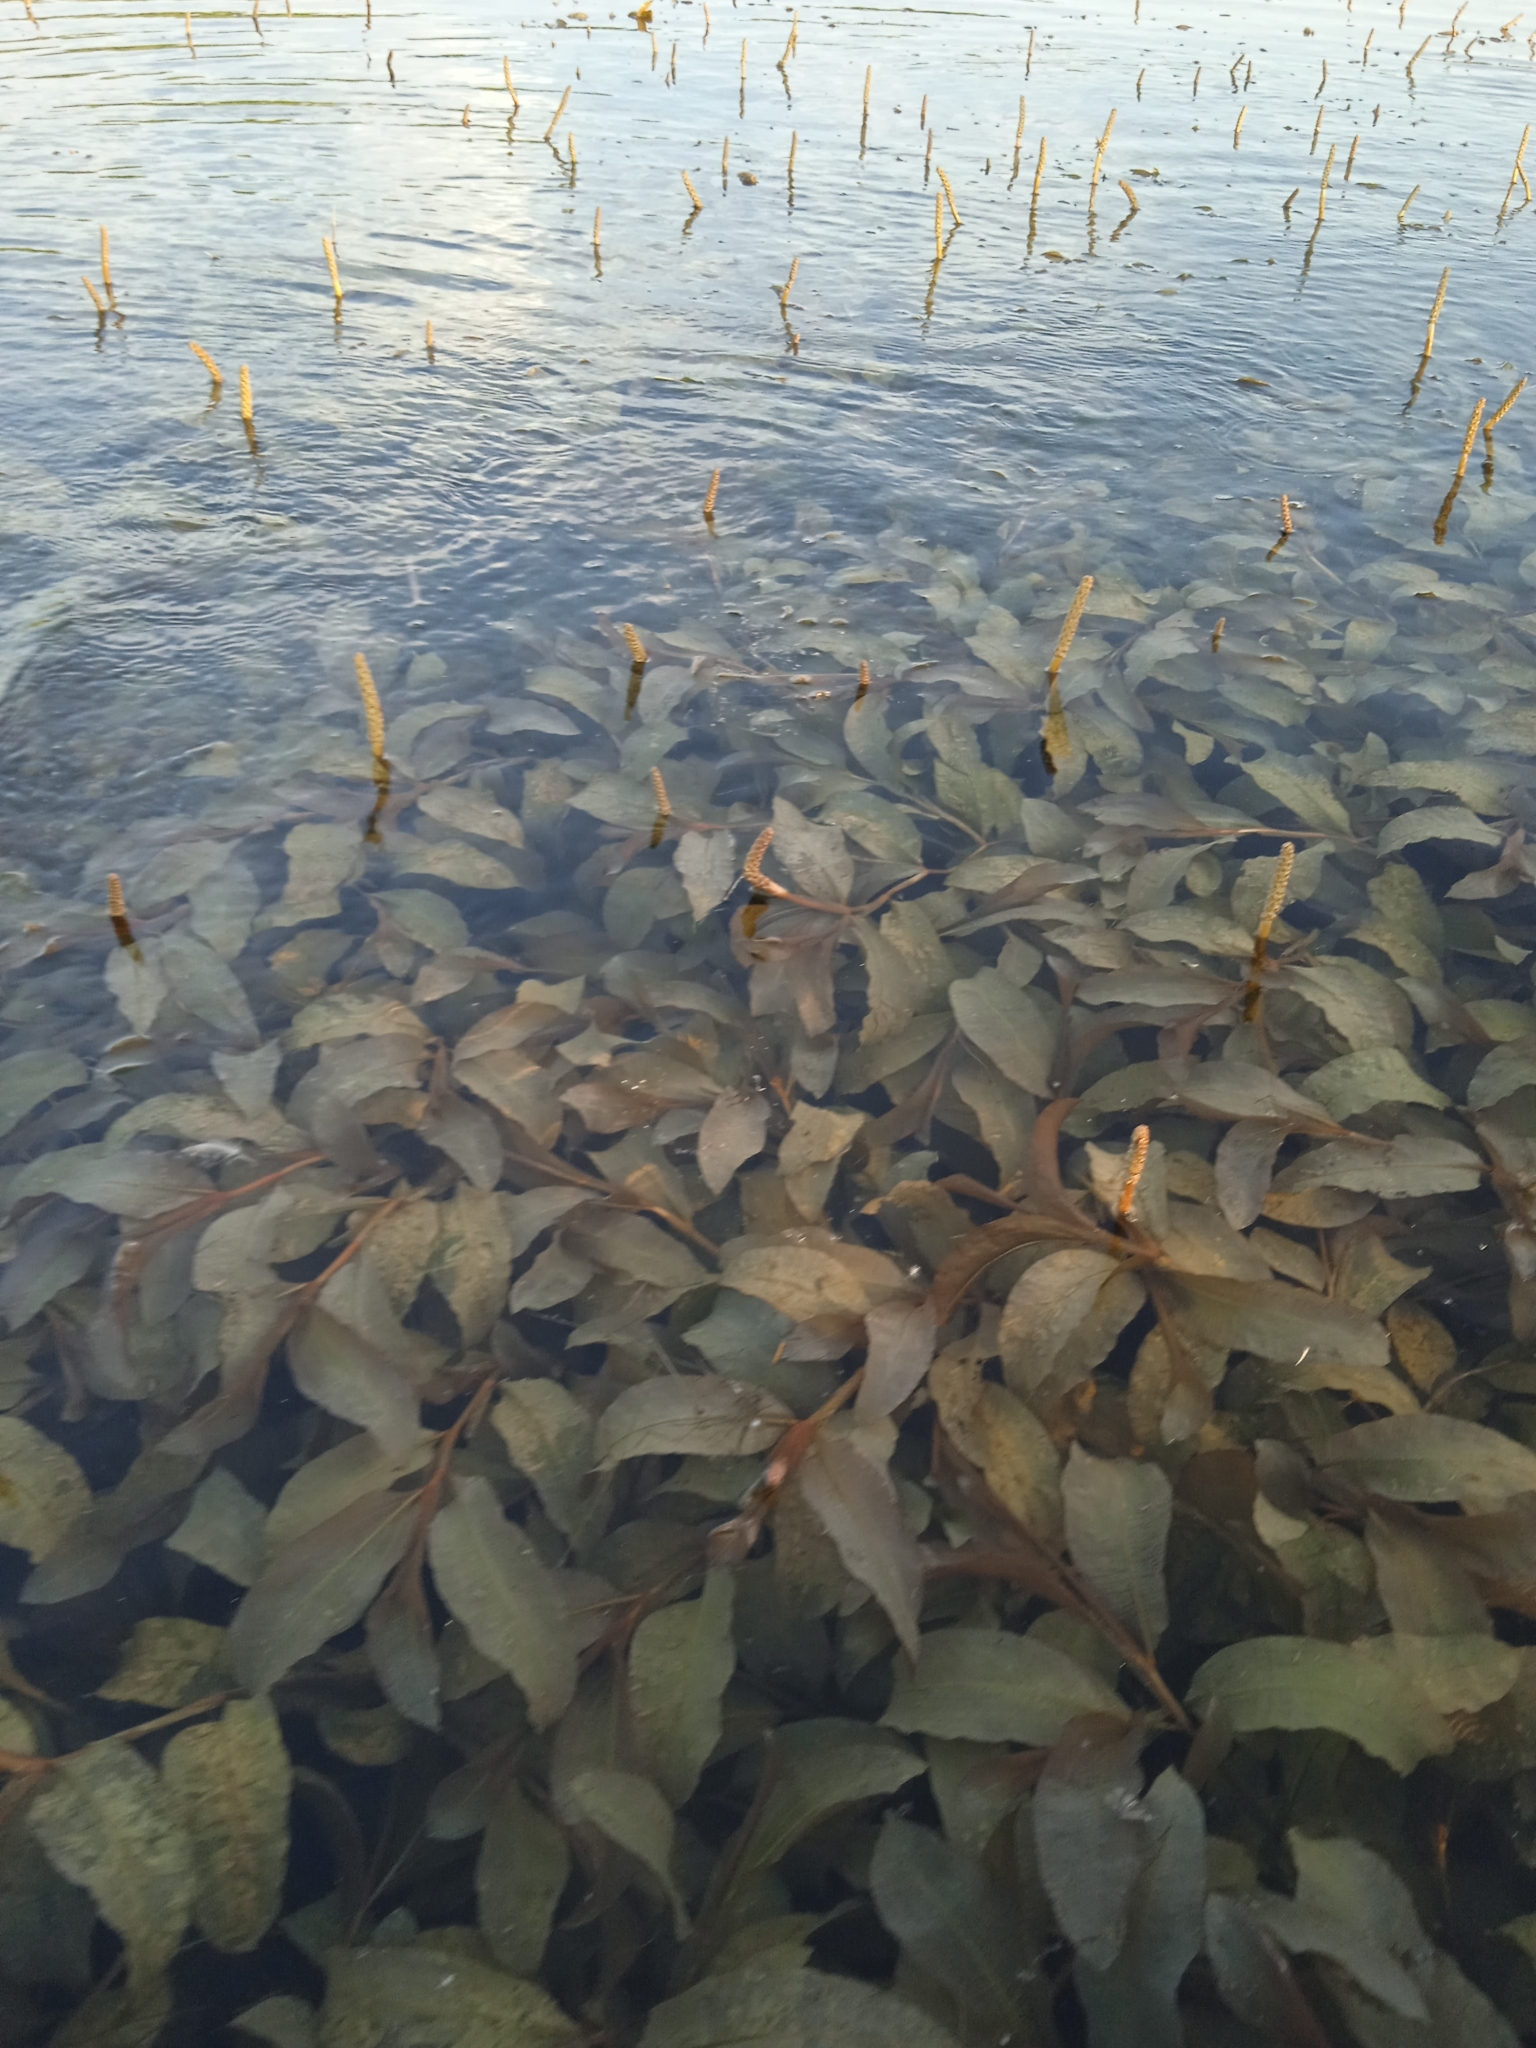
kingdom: Plantae
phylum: Tracheophyta
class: Liliopsida
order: Alismatales
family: Potamogetonaceae
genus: Potamogeton
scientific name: Potamogeton lucens
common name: Shining pondweed
